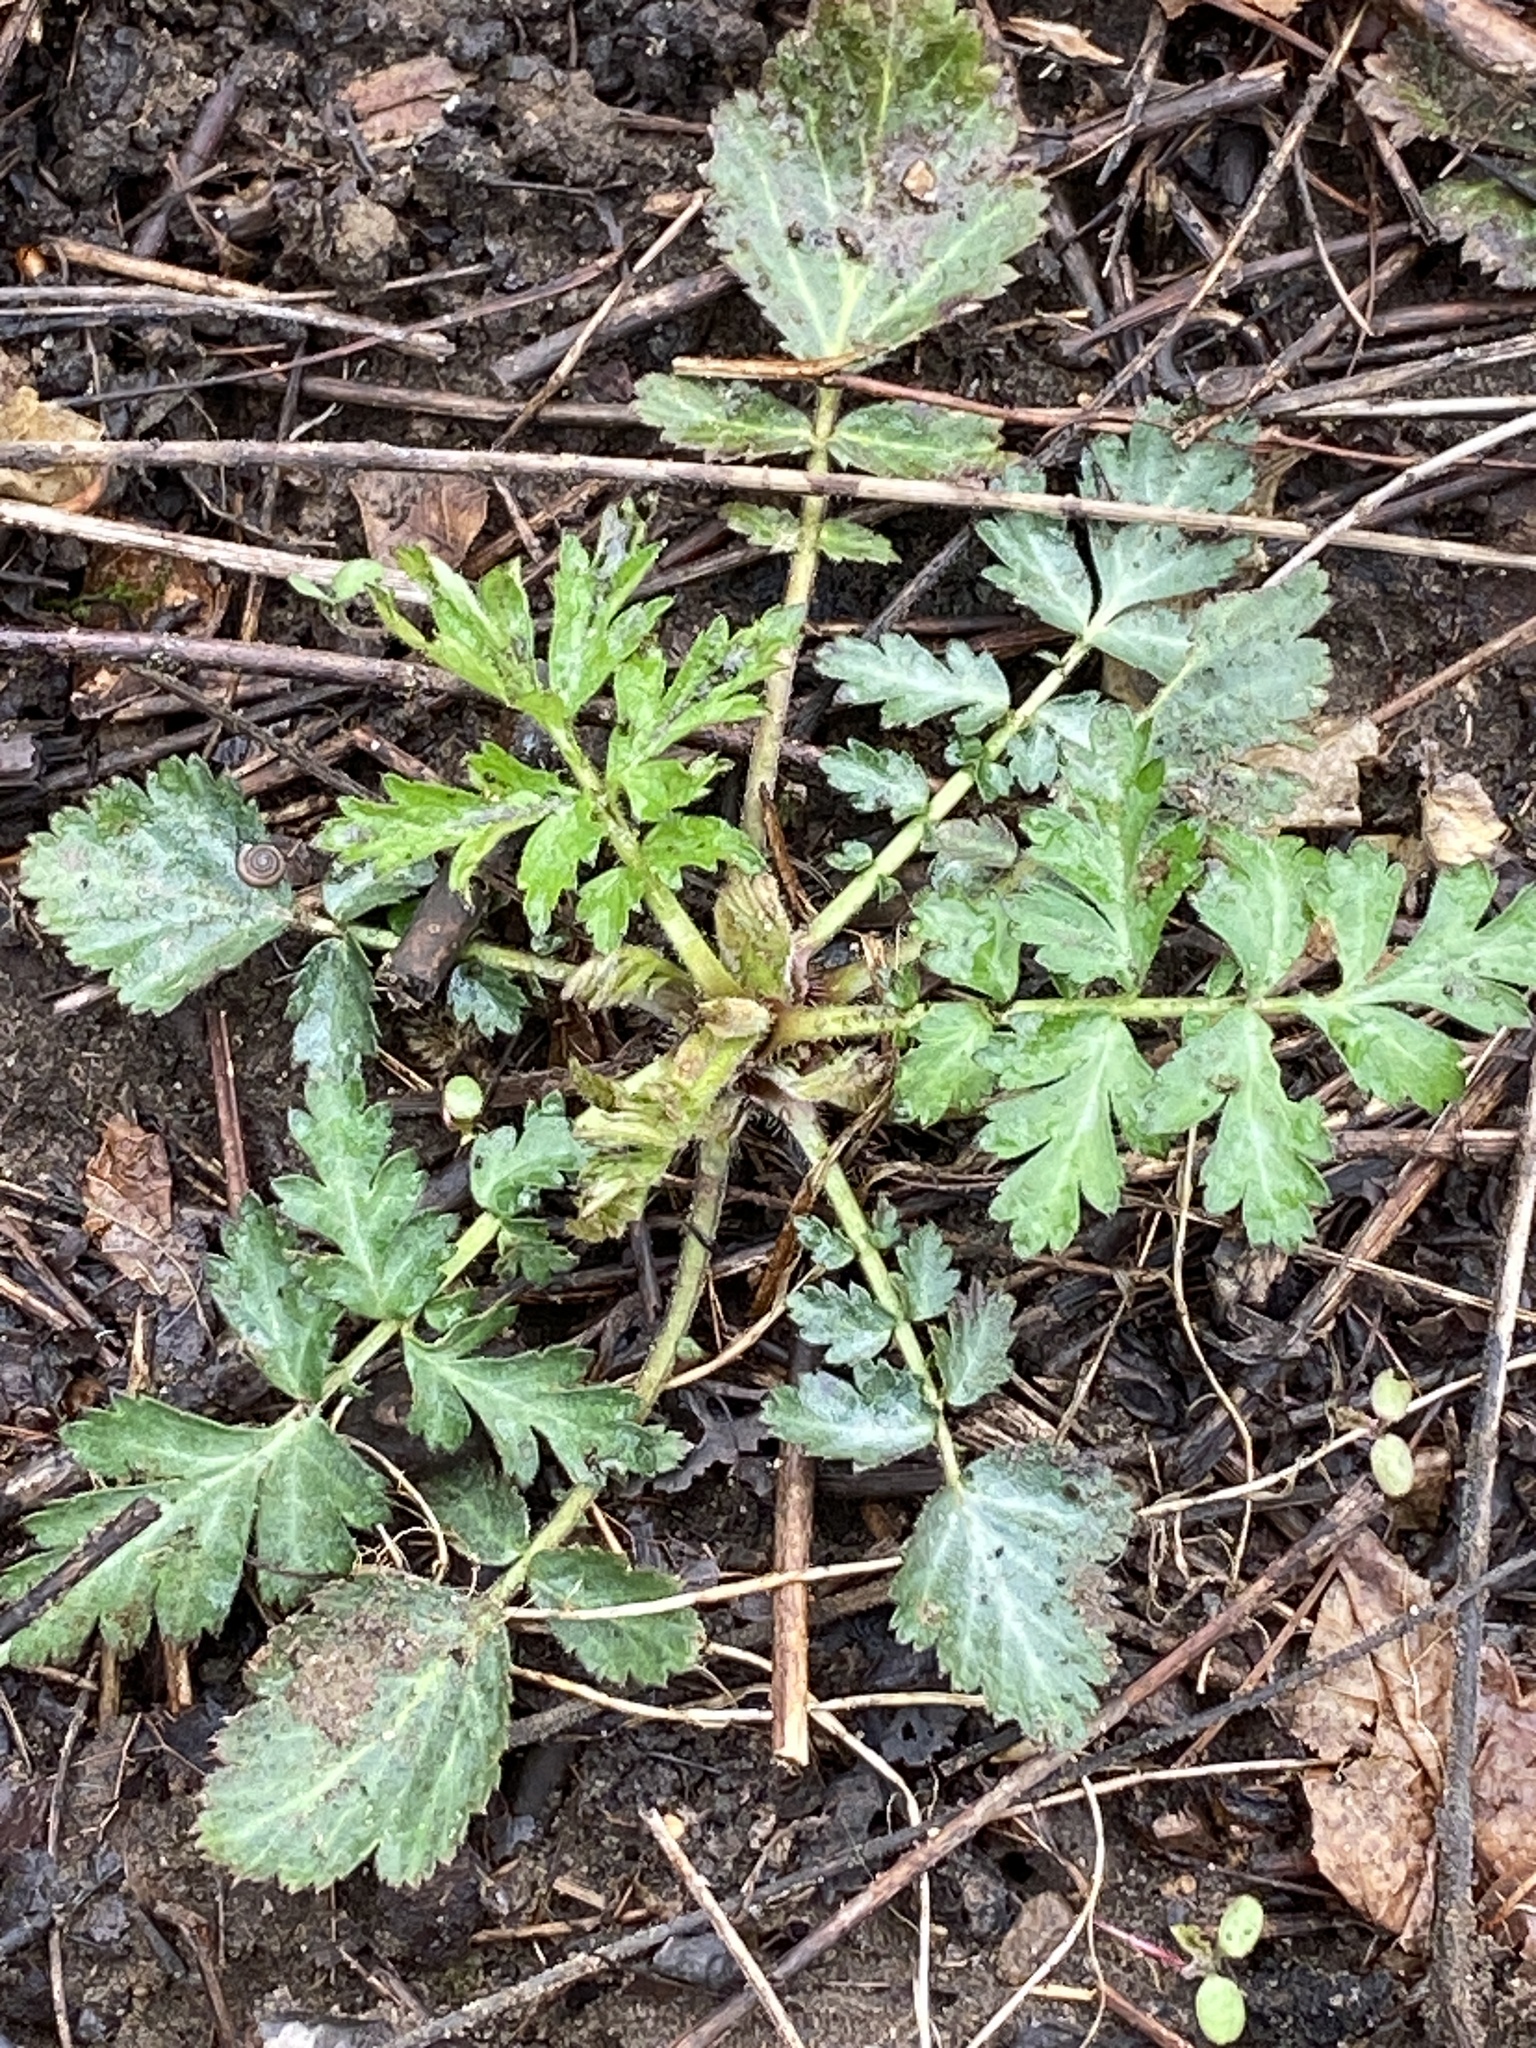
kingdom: Plantae
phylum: Tracheophyta
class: Magnoliopsida
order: Rosales
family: Rosaceae
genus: Geum
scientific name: Geum canadense
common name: White avens
